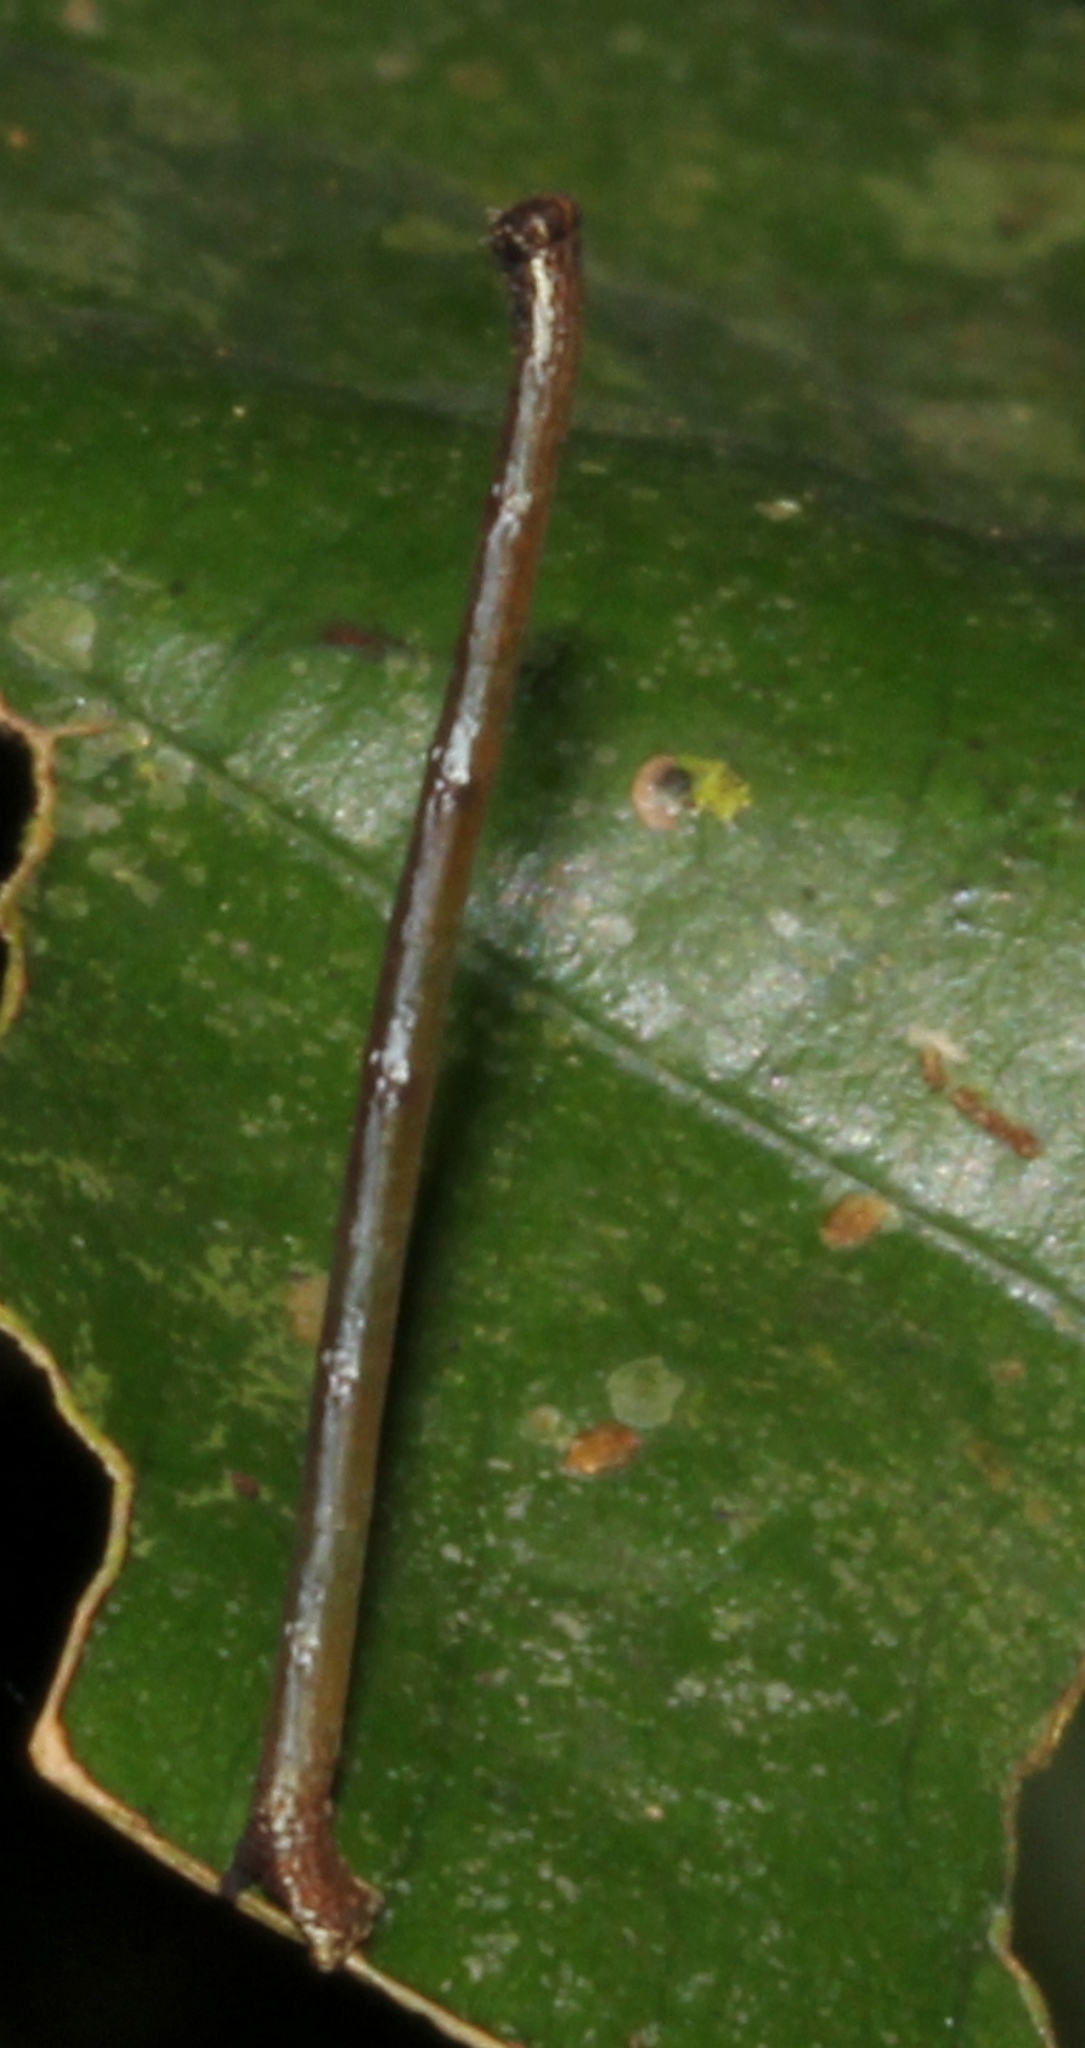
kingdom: Animalia
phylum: Arthropoda
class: Insecta
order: Lepidoptera
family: Geometridae
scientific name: Geometridae
